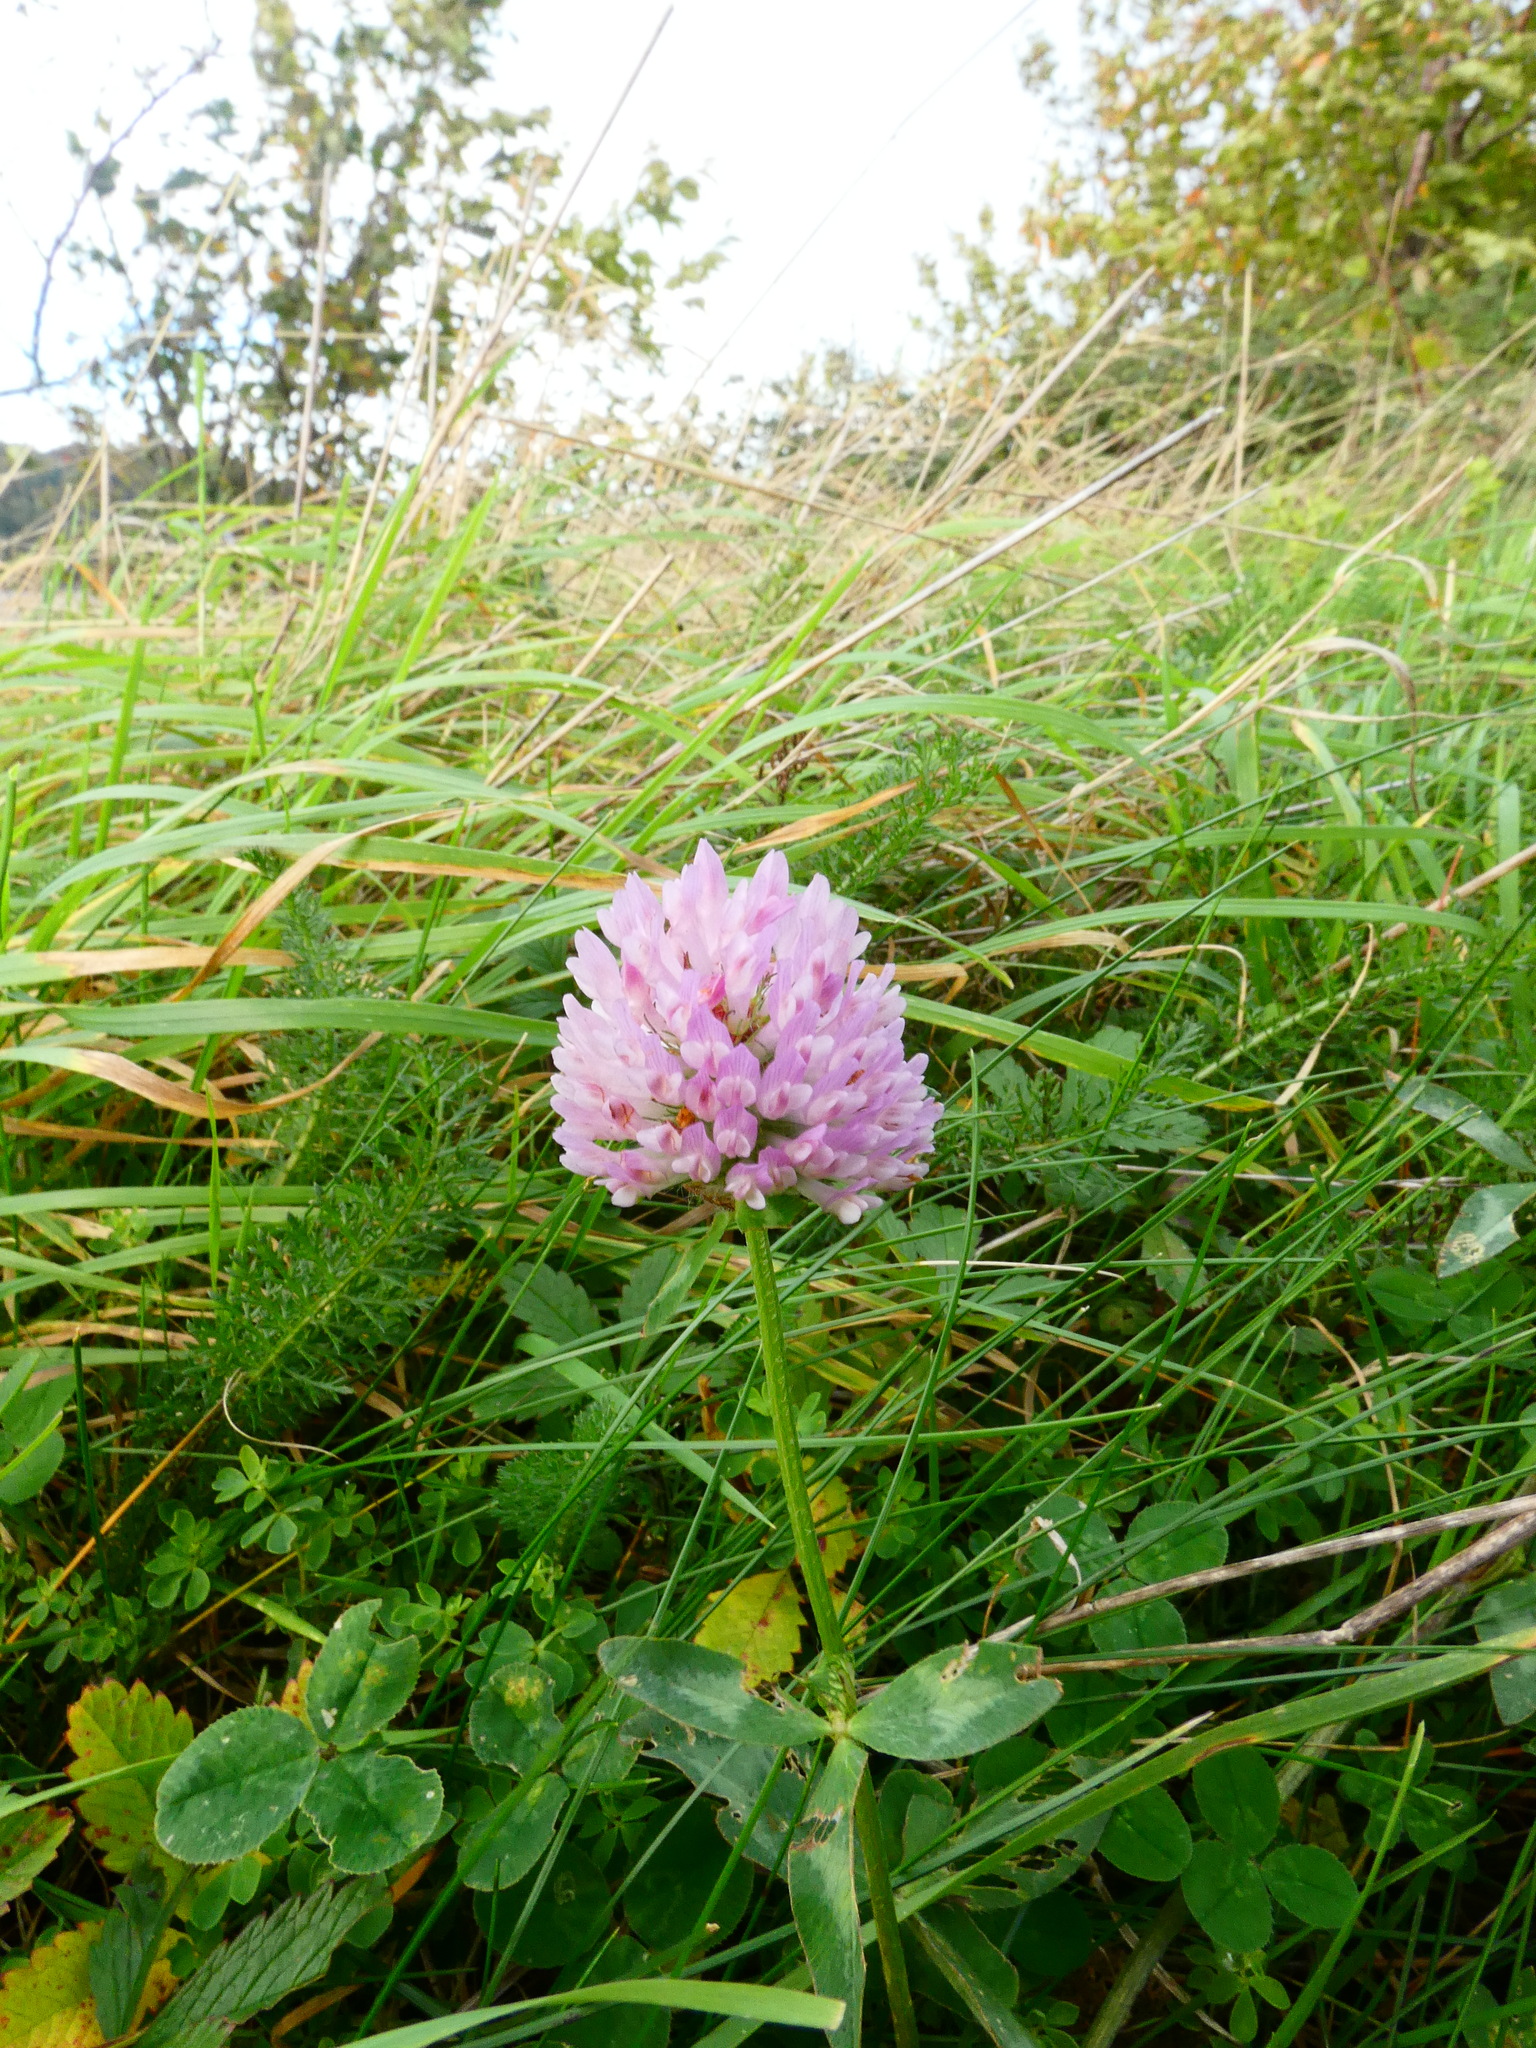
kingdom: Plantae
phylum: Tracheophyta
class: Magnoliopsida
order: Fabales
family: Fabaceae
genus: Trifolium
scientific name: Trifolium pratense
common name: Red clover
